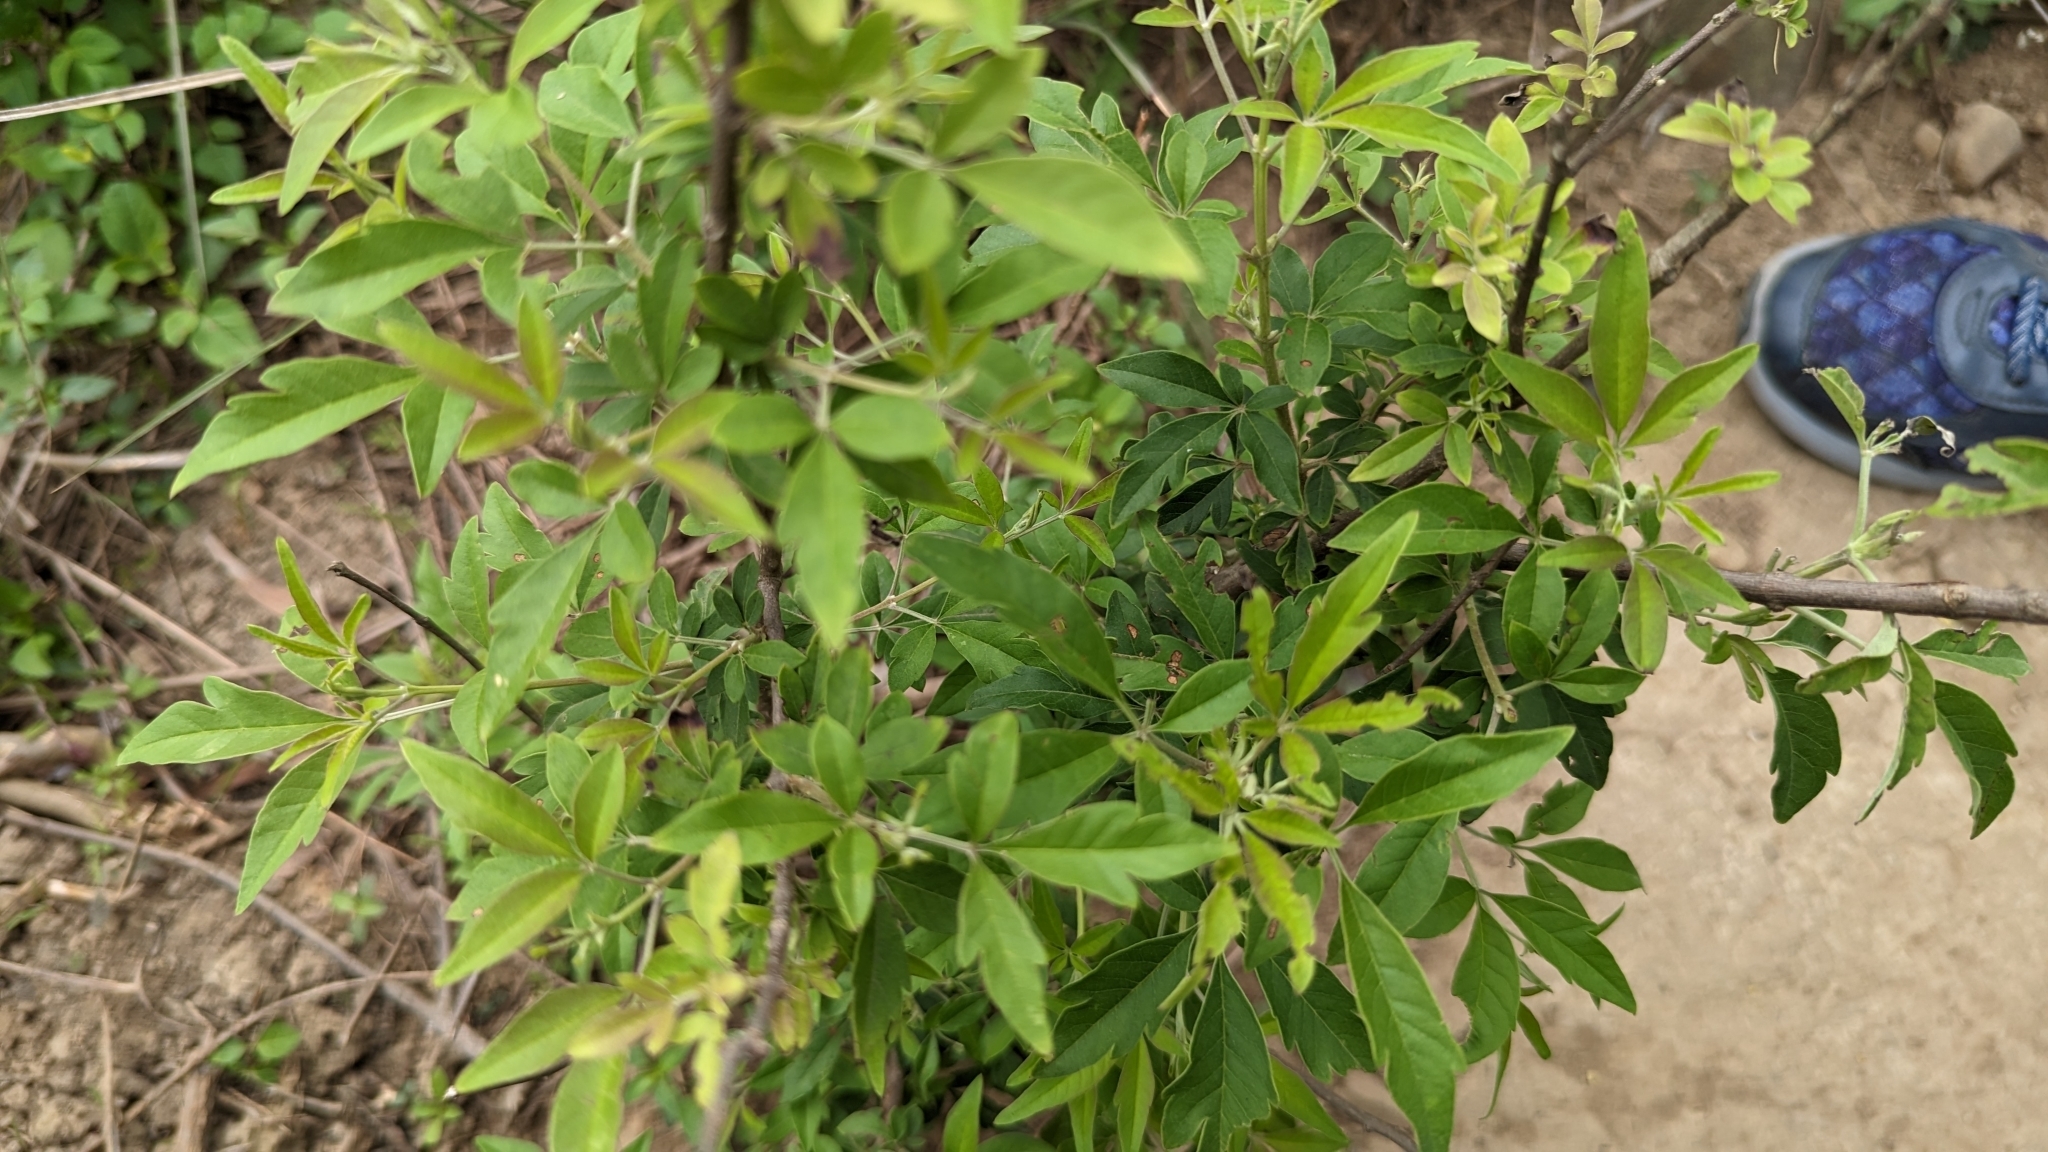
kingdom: Plantae
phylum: Tracheophyta
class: Magnoliopsida
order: Lamiales
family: Lamiaceae
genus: Vitex
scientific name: Vitex negundo
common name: Chinese chastetree
